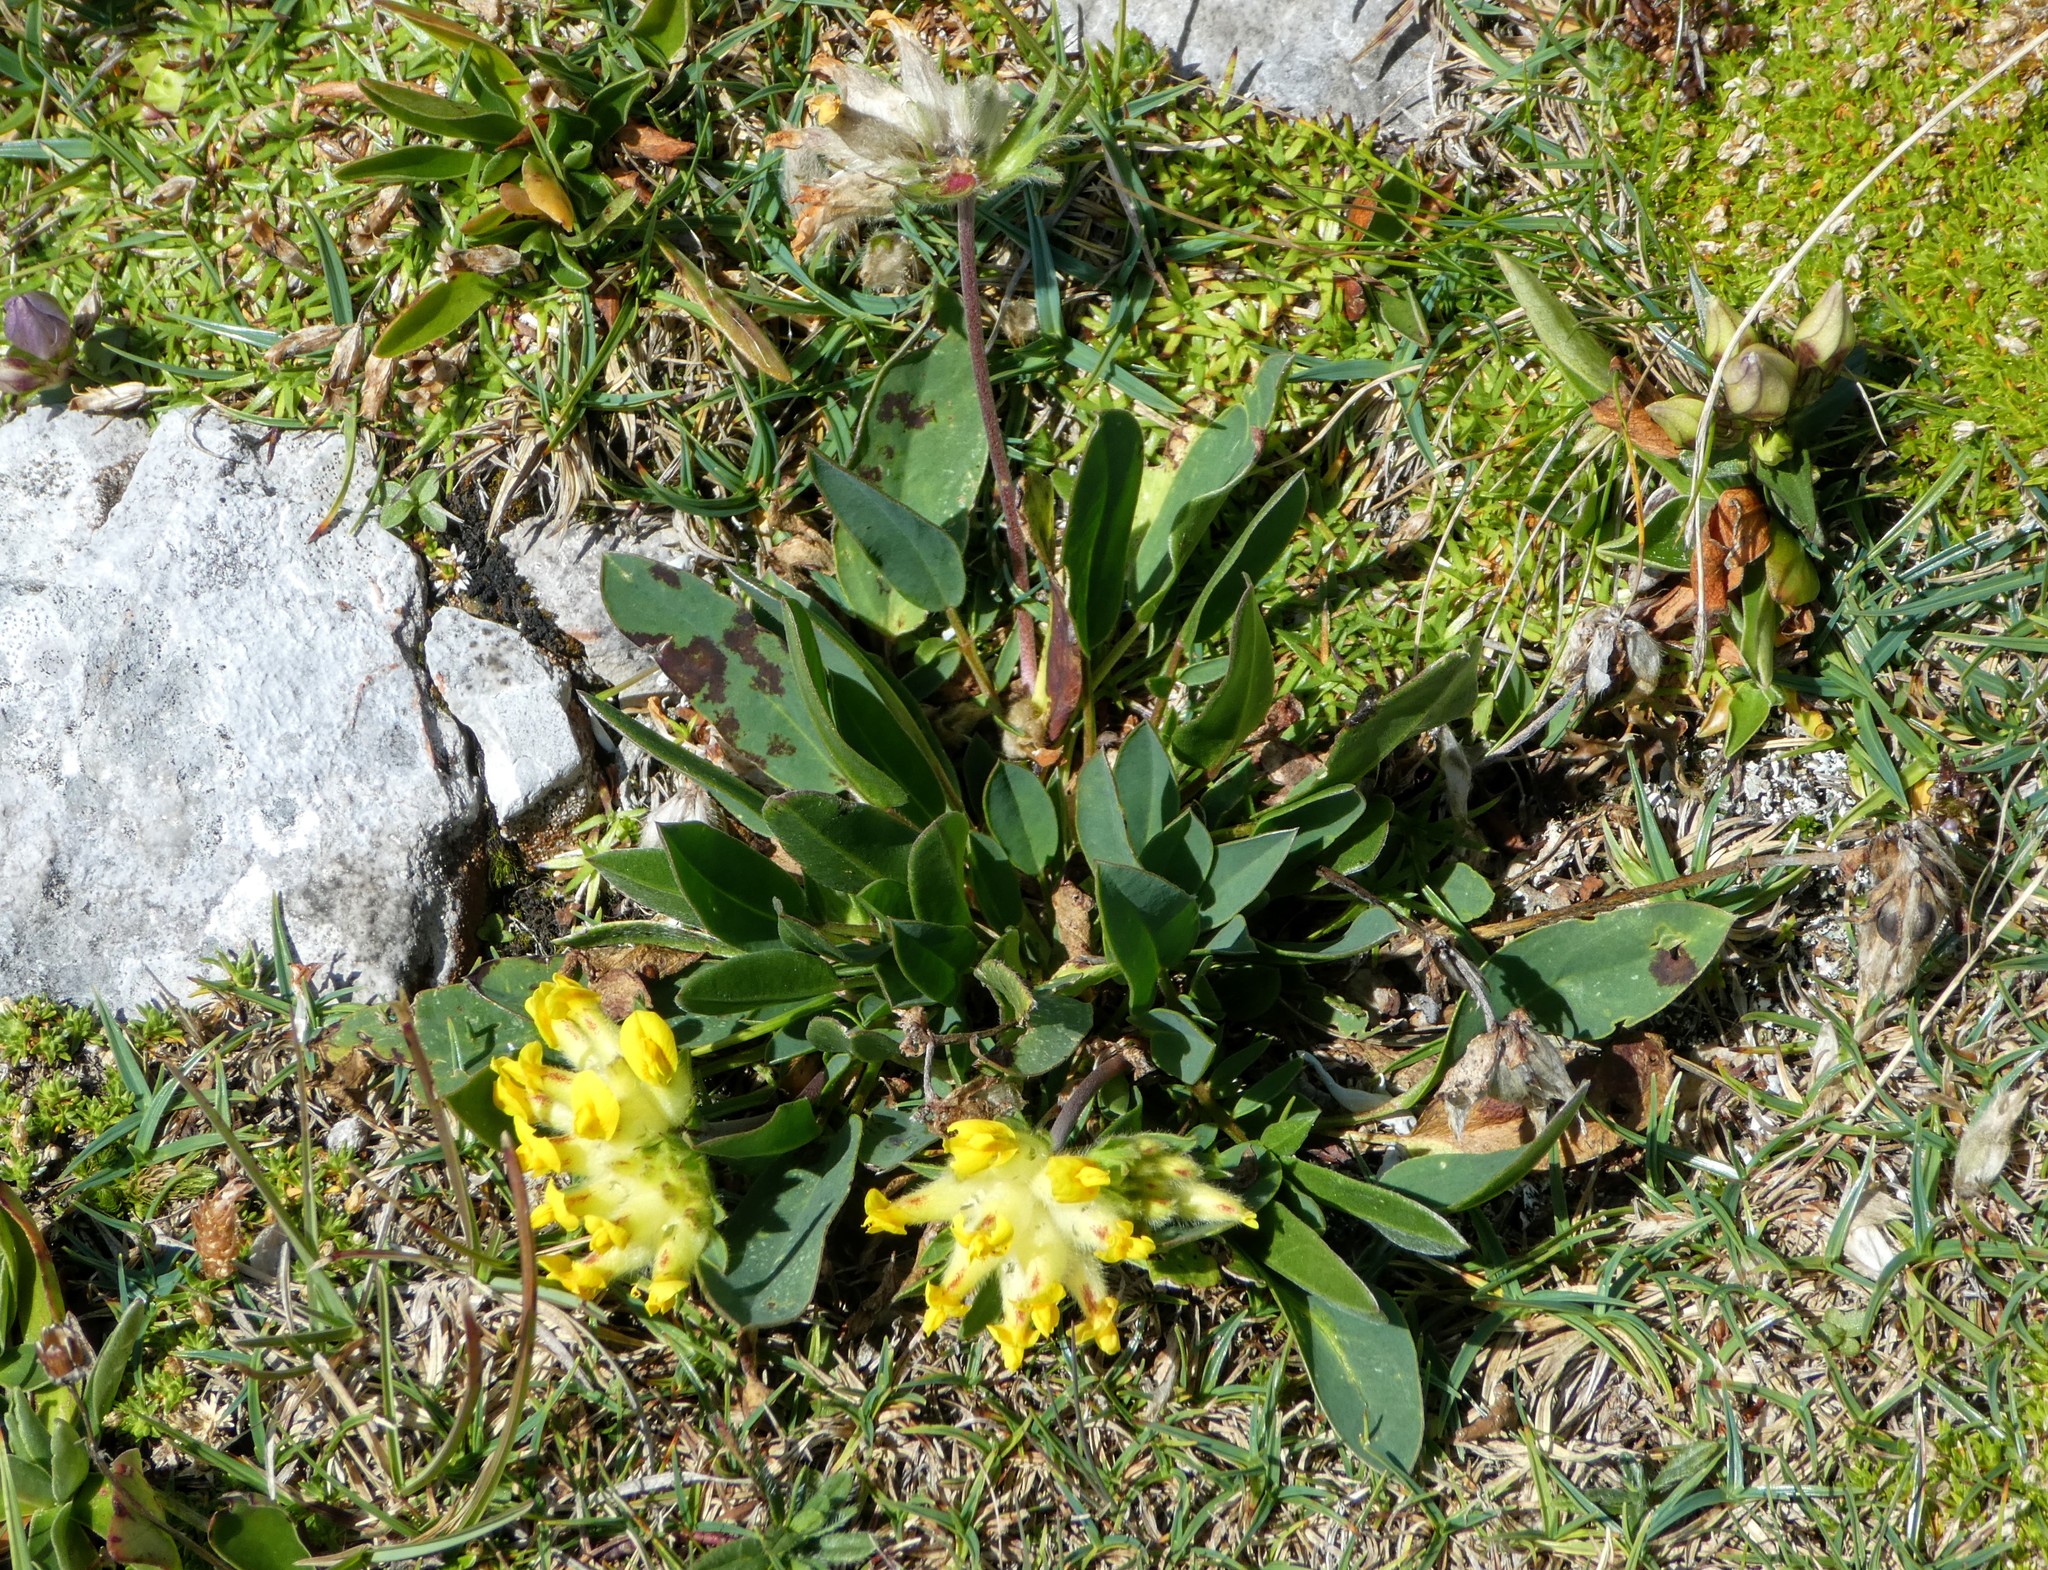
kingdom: Plantae
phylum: Tracheophyta
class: Magnoliopsida
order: Fabales
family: Fabaceae
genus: Anthyllis
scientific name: Anthyllis vulneraria
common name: Kidney vetch
